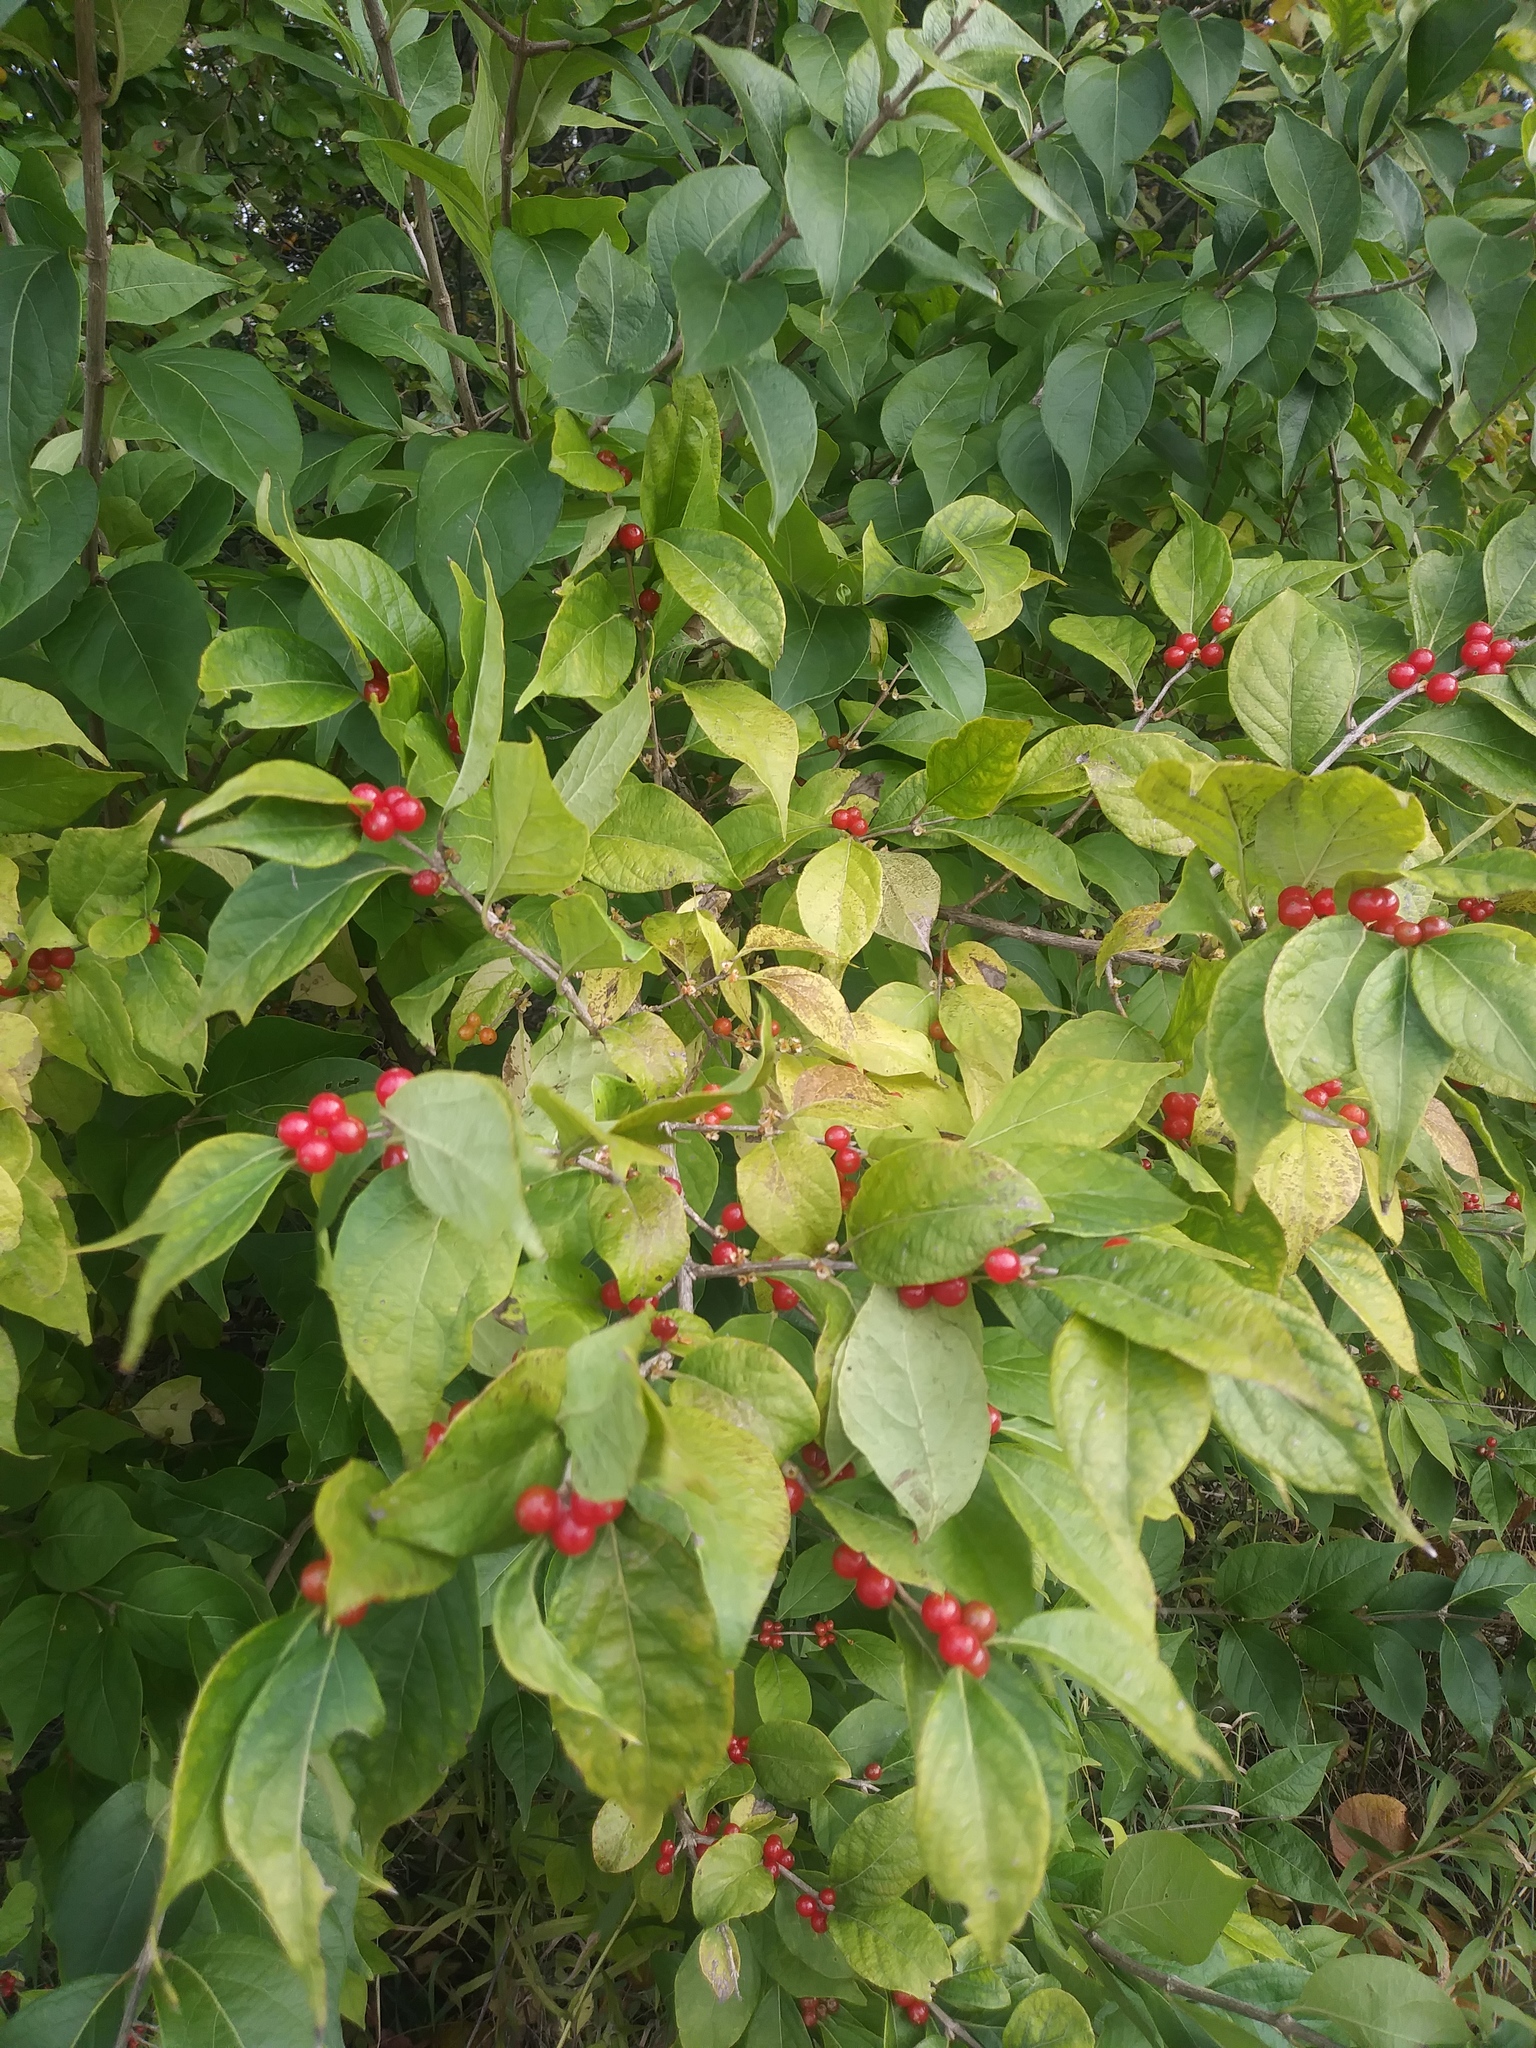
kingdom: Plantae
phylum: Tracheophyta
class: Magnoliopsida
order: Dipsacales
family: Caprifoliaceae
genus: Lonicera
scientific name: Lonicera maackii
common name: Amur honeysuckle
